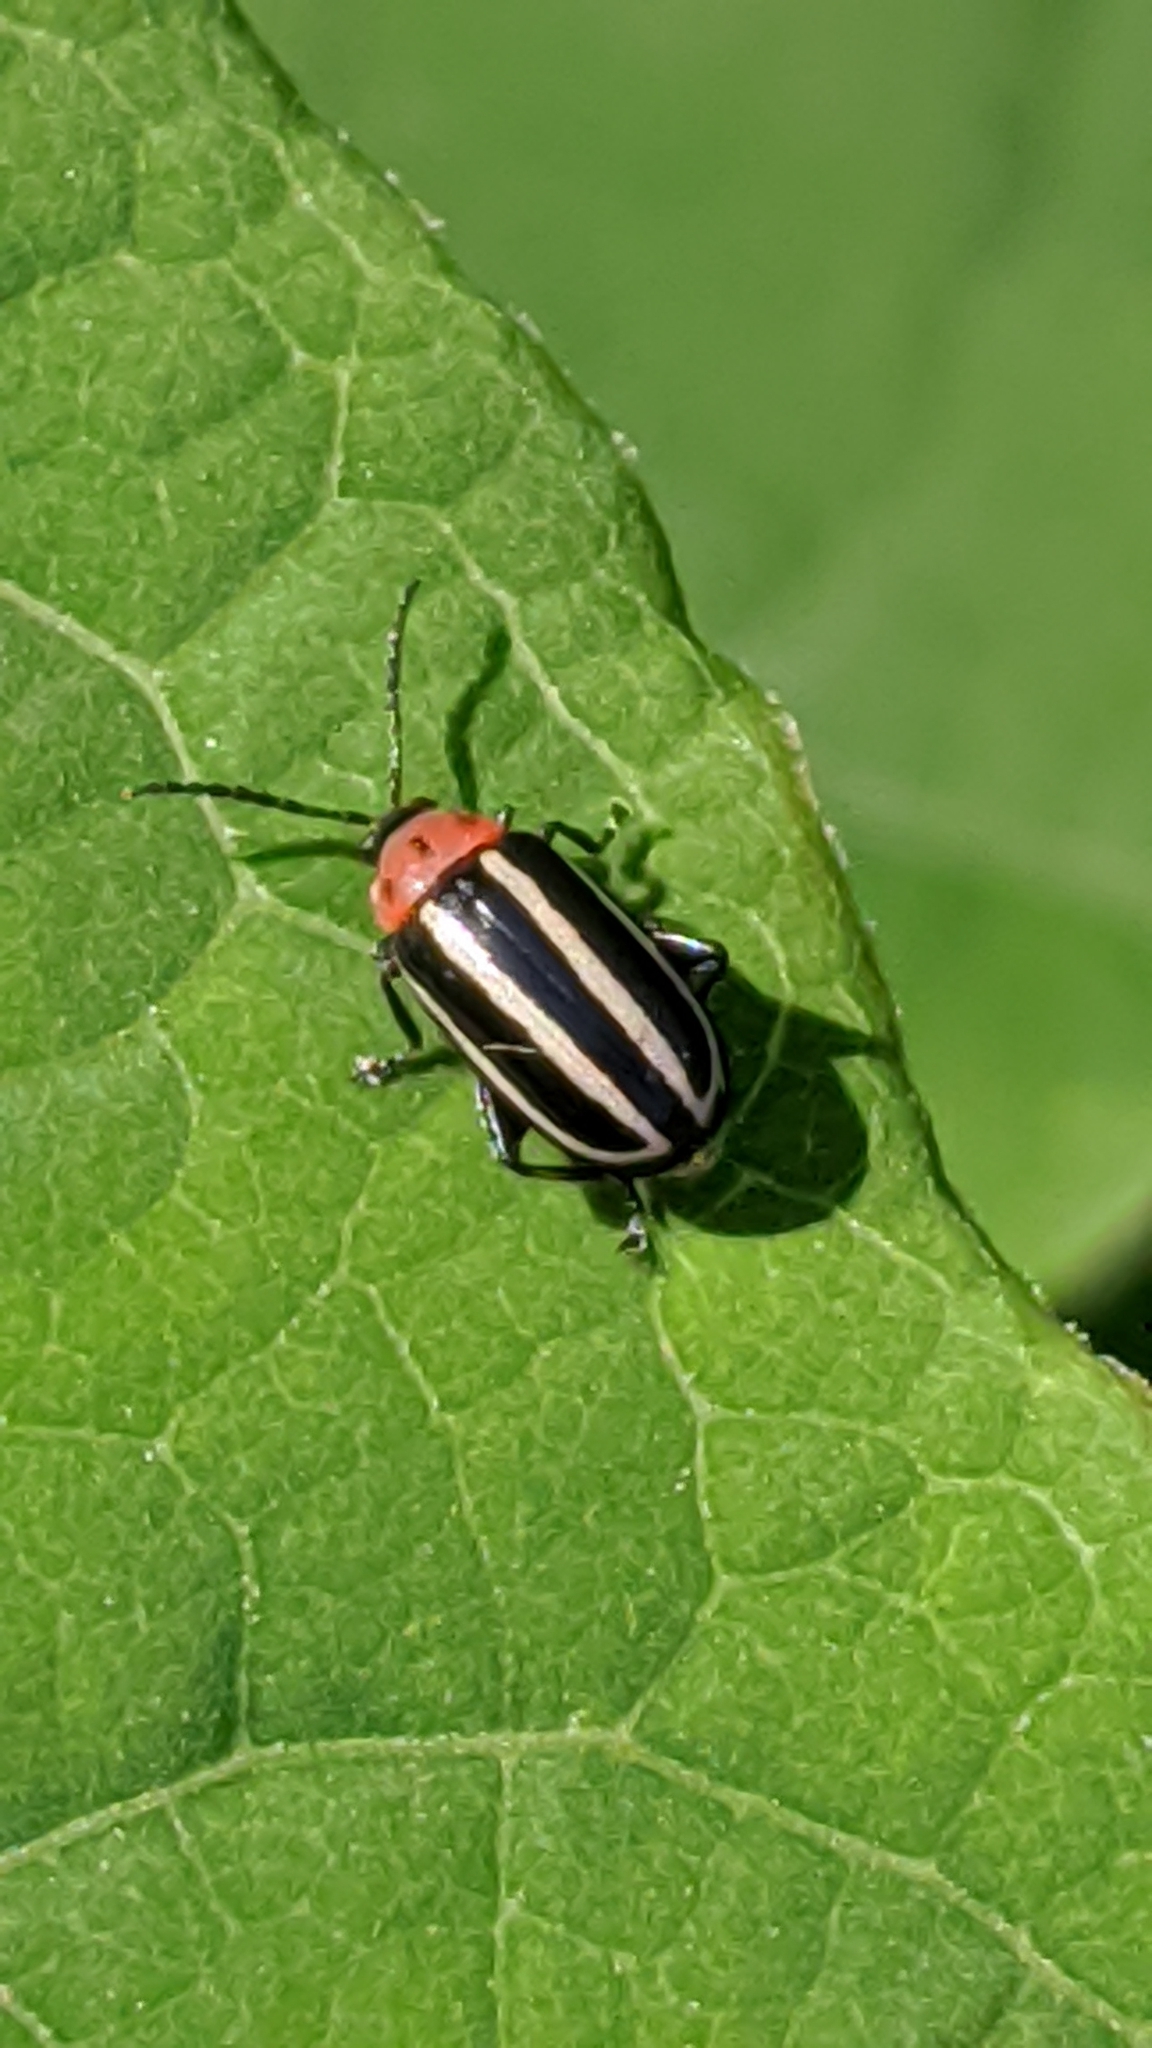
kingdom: Animalia
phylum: Arthropoda
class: Insecta
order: Coleoptera
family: Chrysomelidae
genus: Disonycha
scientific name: Disonycha glabrata
